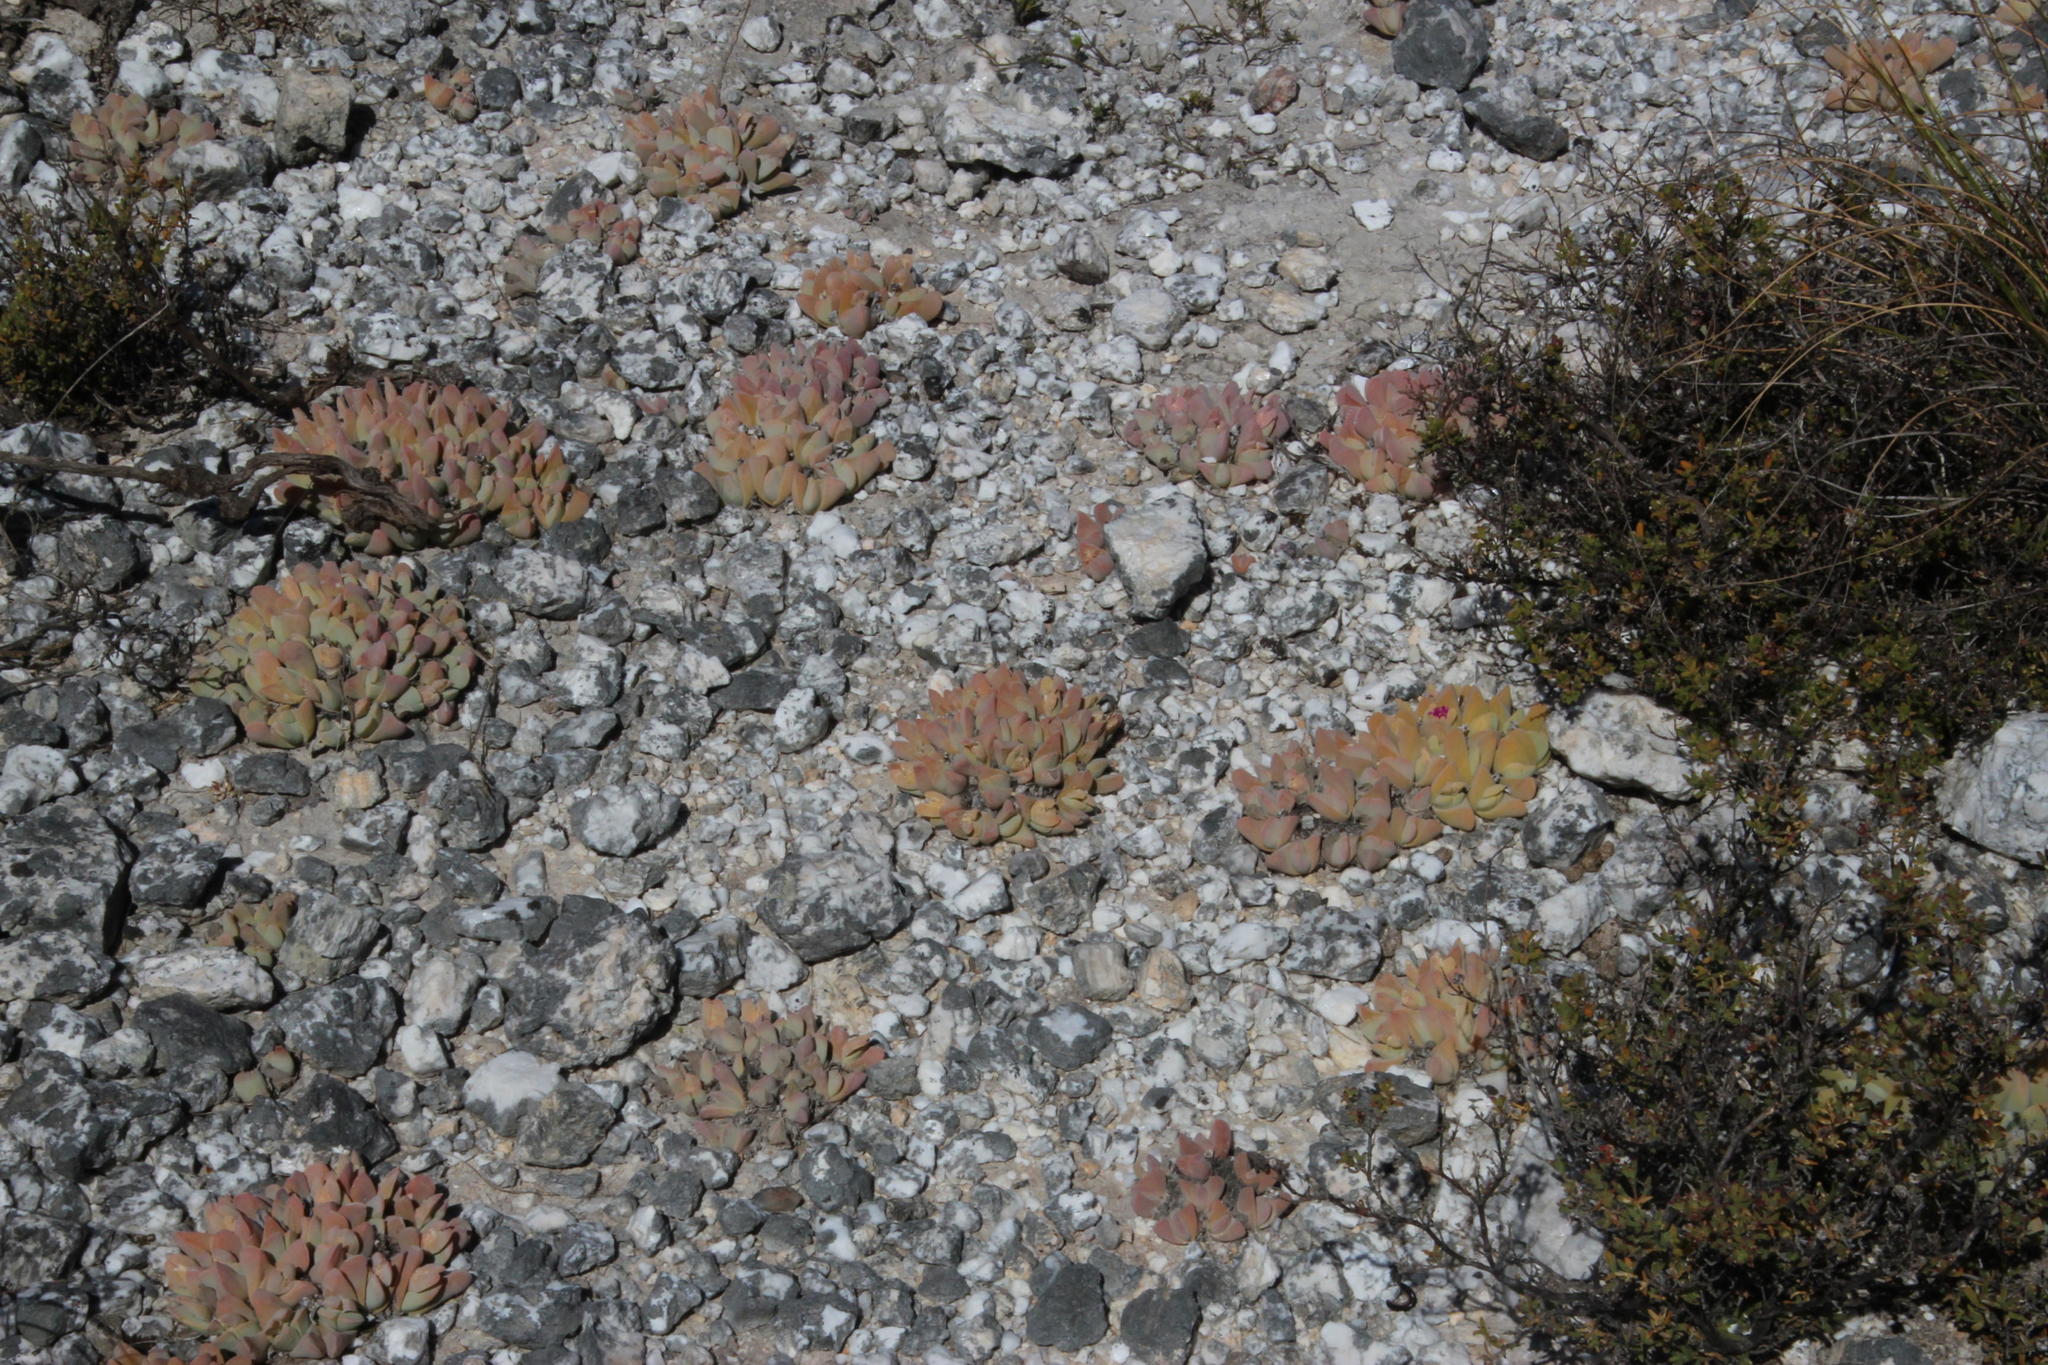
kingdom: Plantae
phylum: Tracheophyta
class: Magnoliopsida
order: Caryophyllales
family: Aizoaceae
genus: Gibbaeum
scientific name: Gibbaeum hartmannianum
